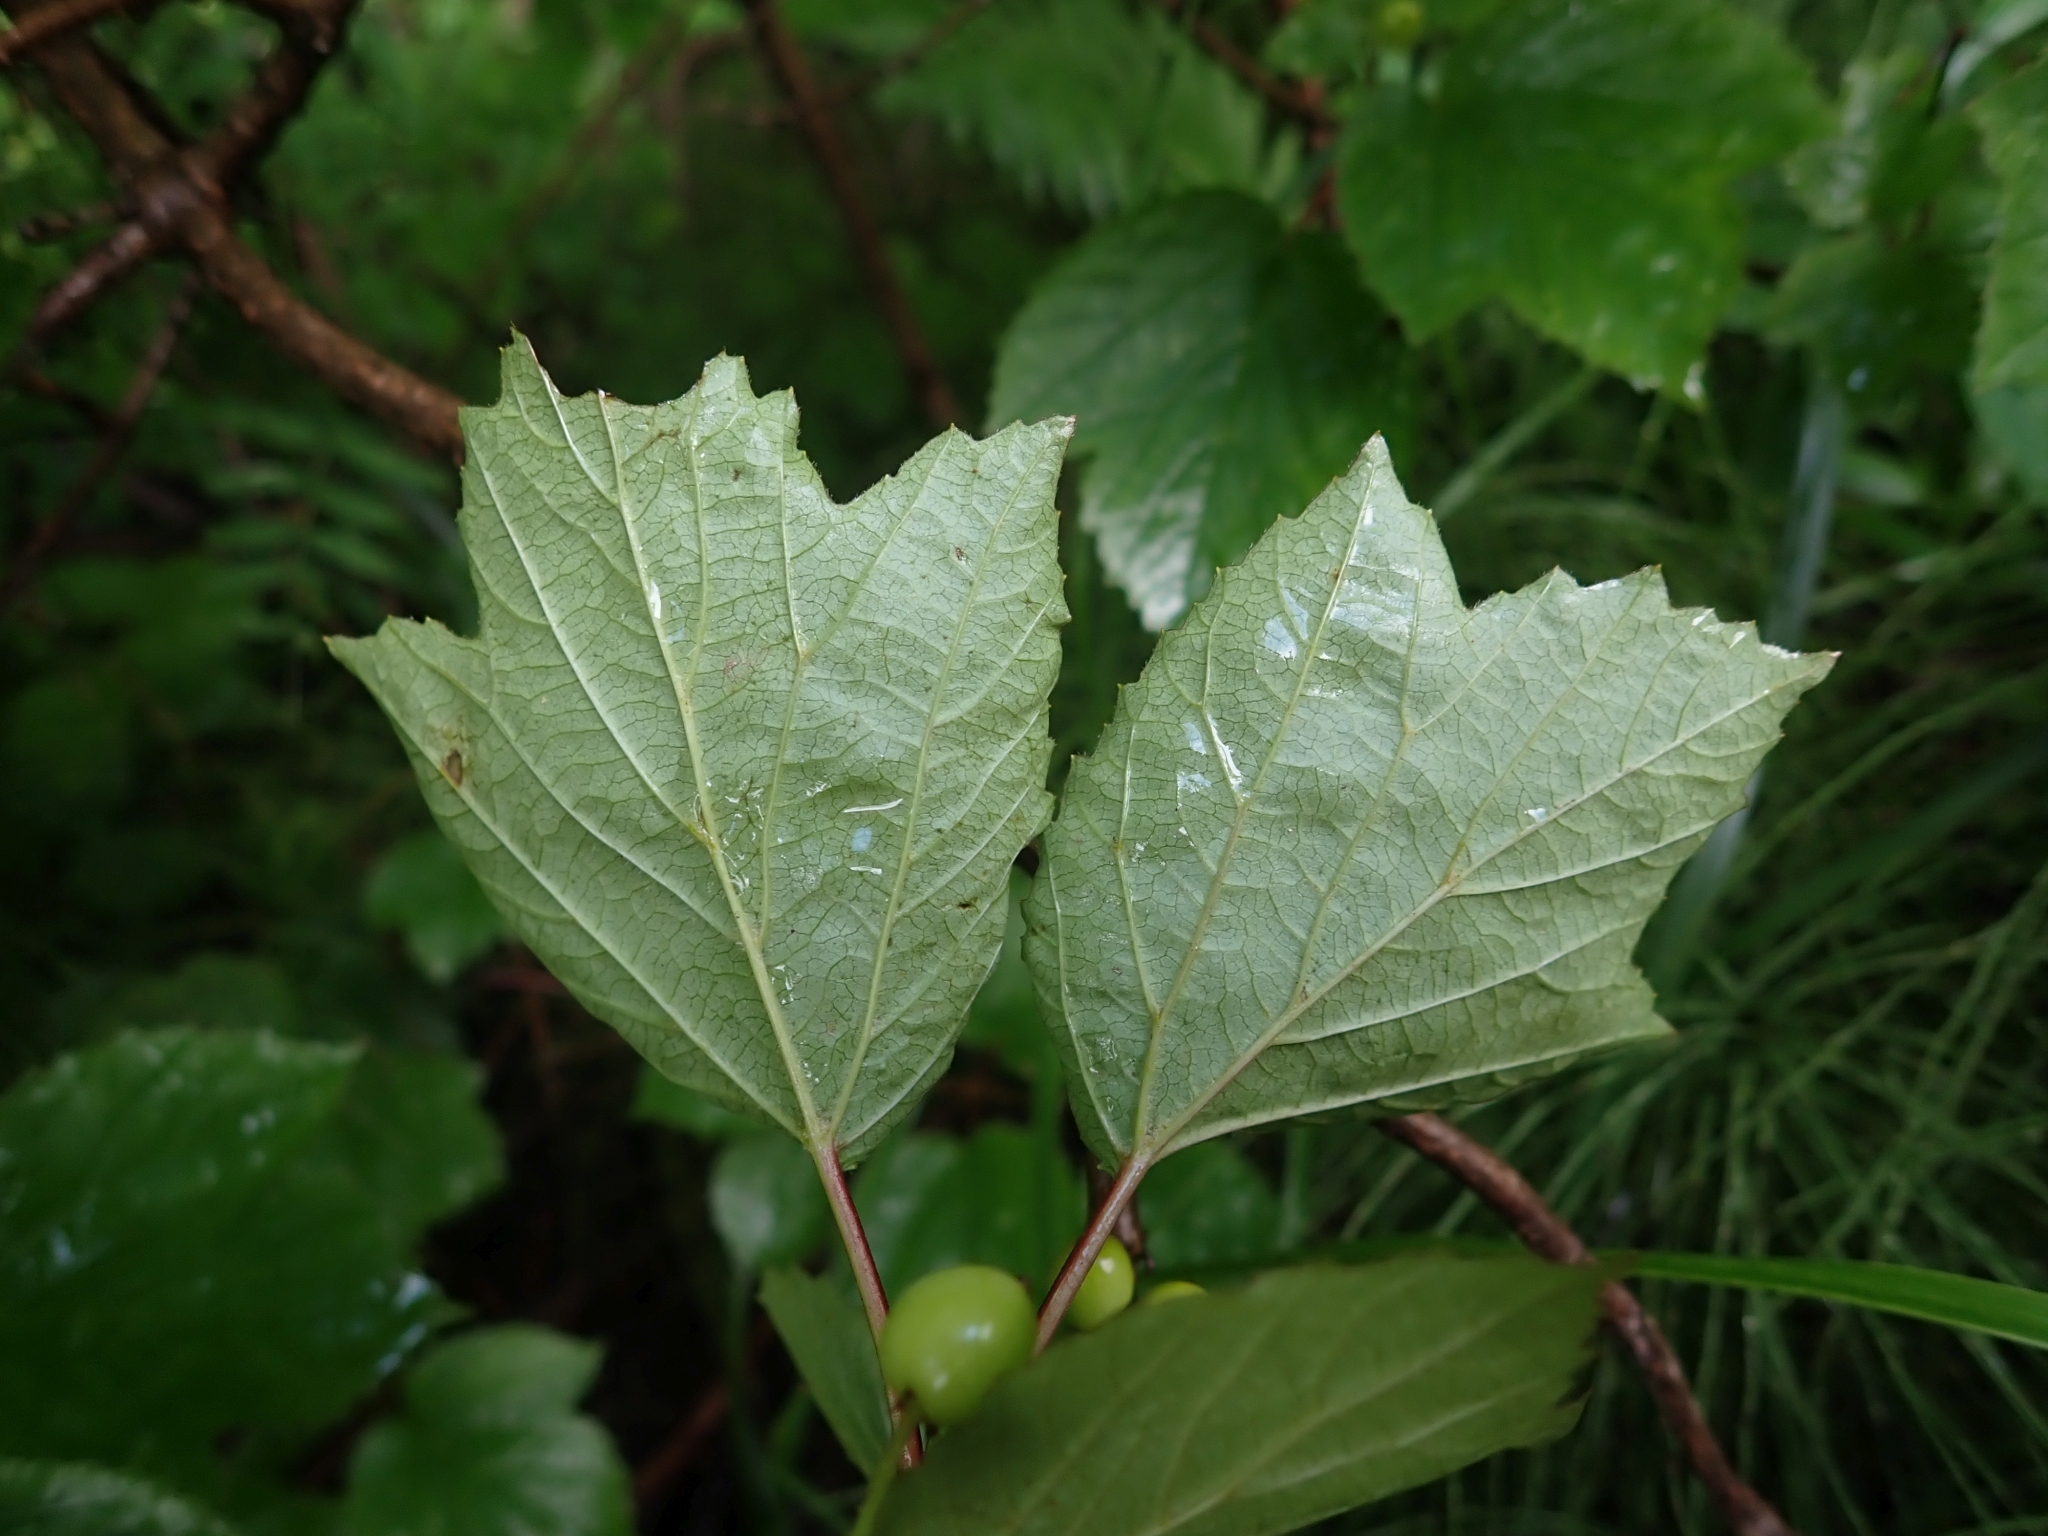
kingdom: Plantae
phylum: Tracheophyta
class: Magnoliopsida
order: Dipsacales
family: Viburnaceae
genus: Viburnum
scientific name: Viburnum edule
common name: Mooseberry
